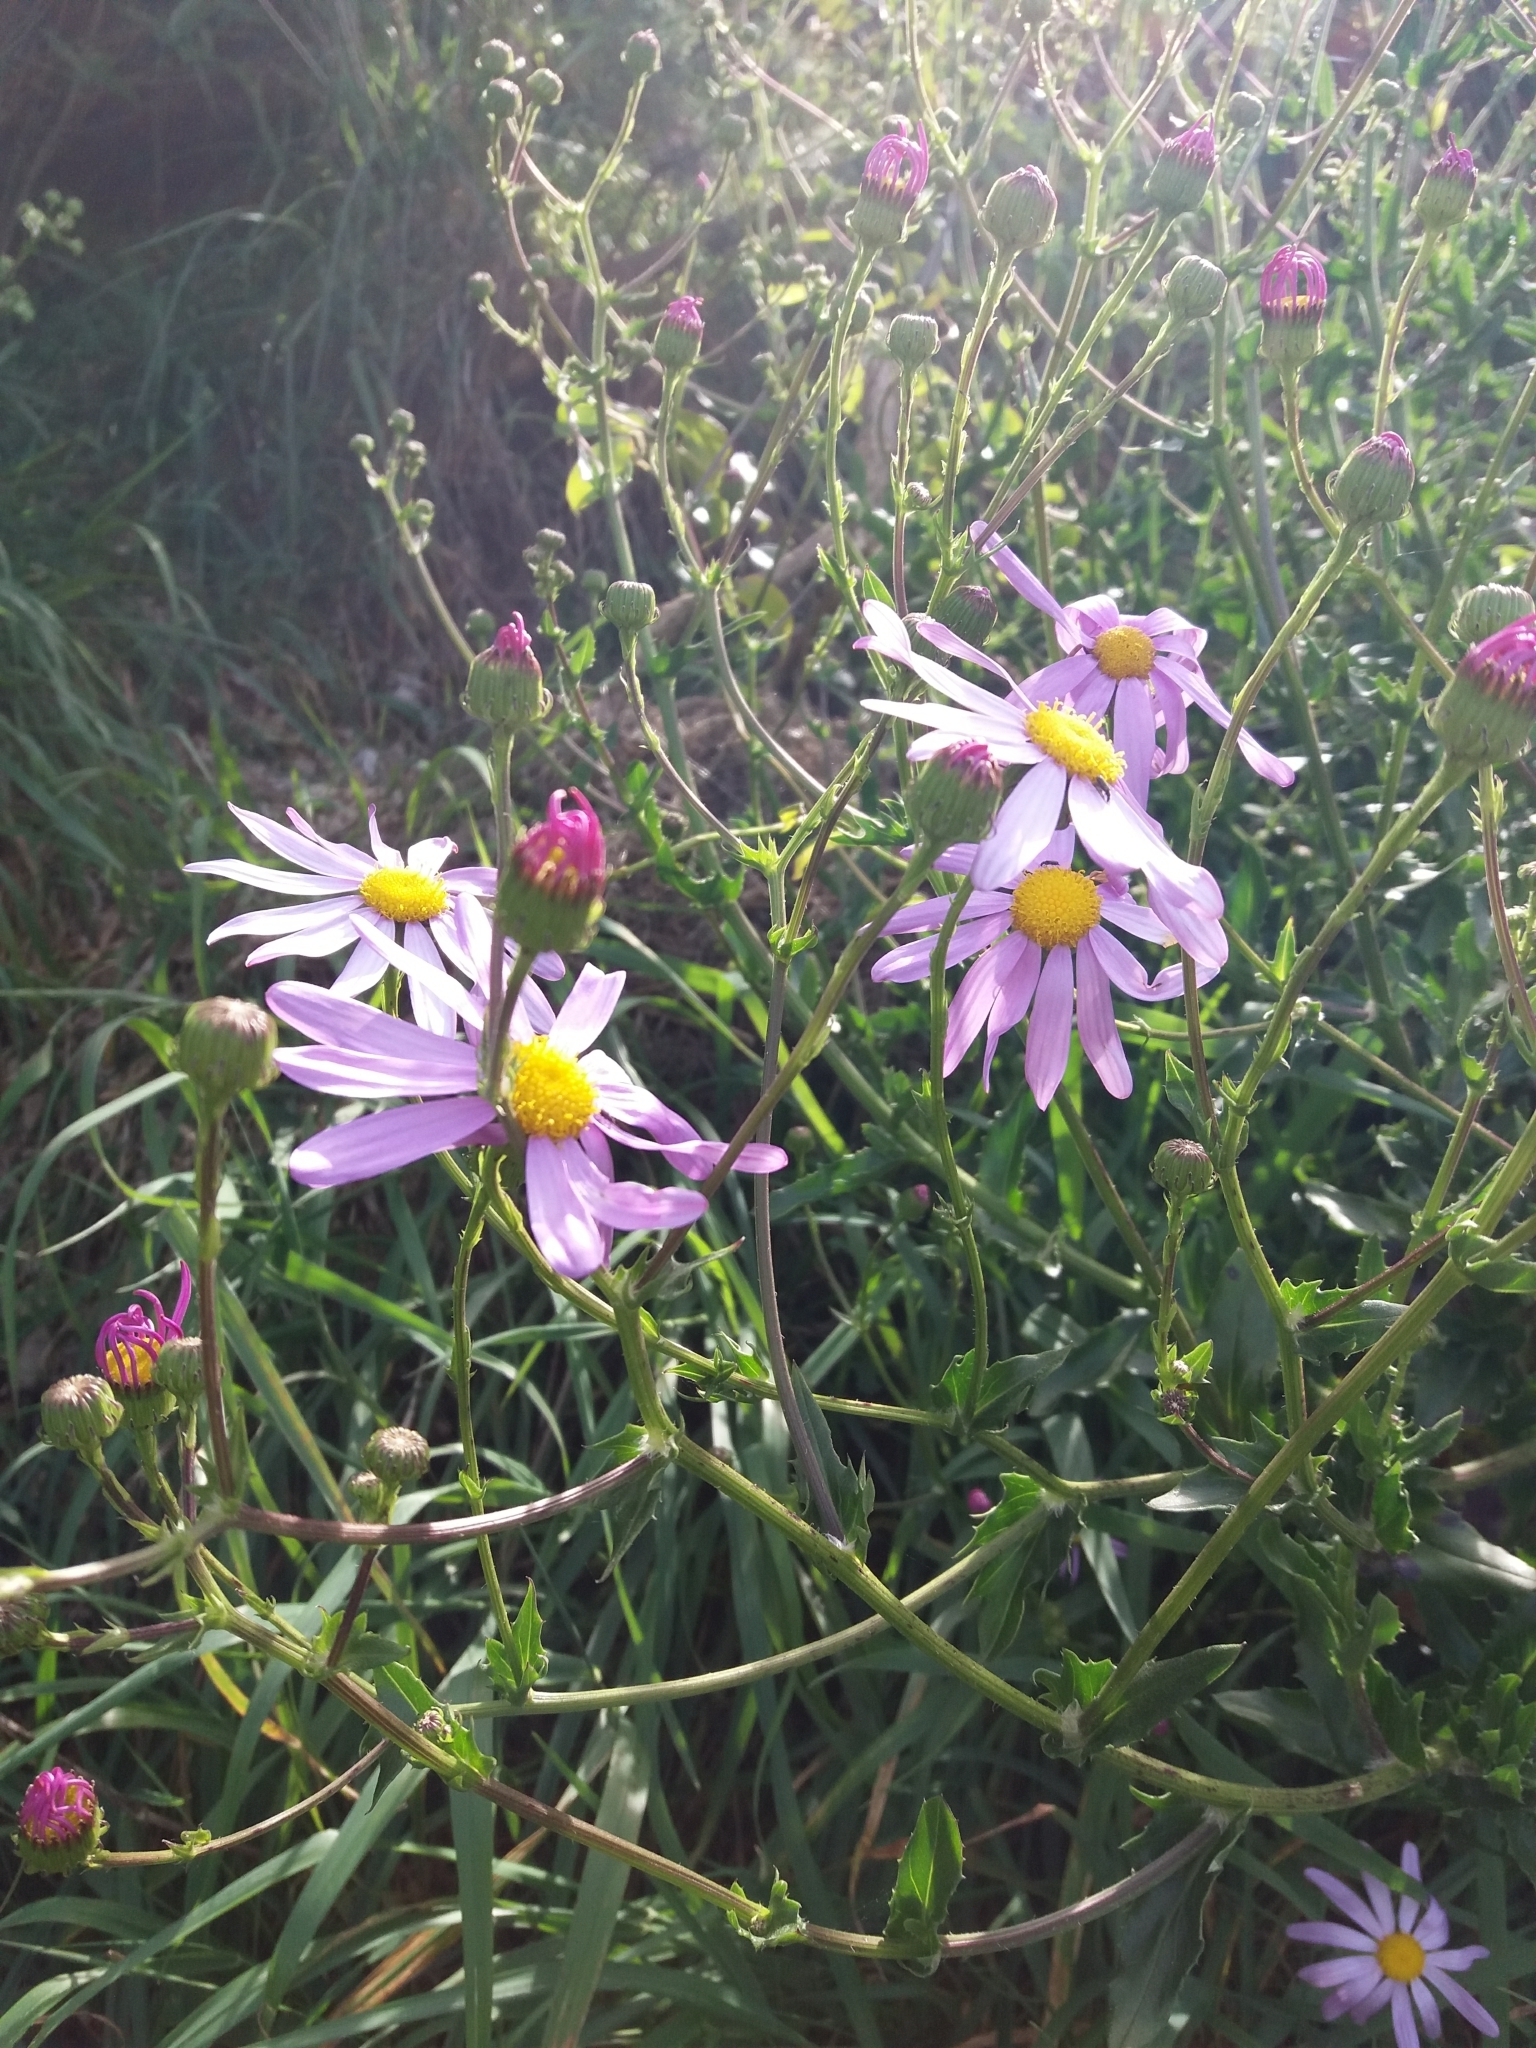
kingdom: Plantae
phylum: Tracheophyta
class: Magnoliopsida
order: Asterales
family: Asteraceae
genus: Senecio
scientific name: Senecio glastifolius
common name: Woad-leaved ragwort
